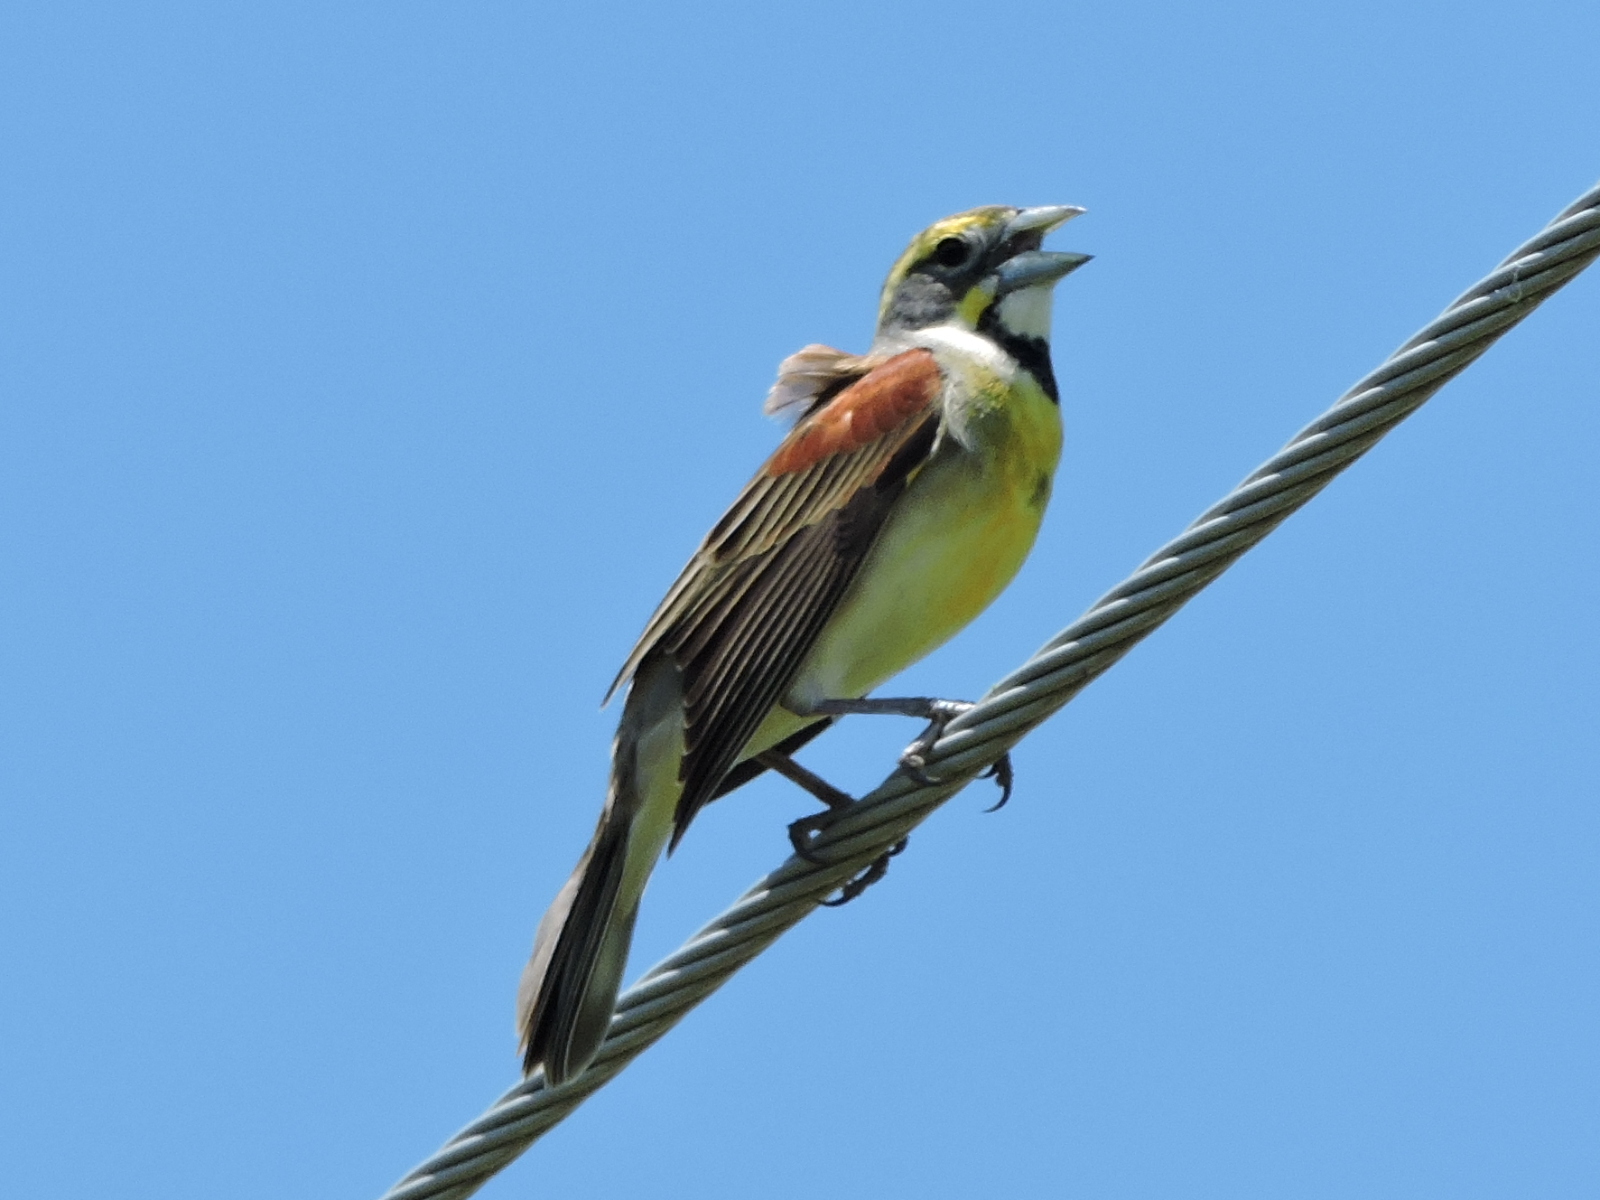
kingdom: Animalia
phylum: Chordata
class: Aves
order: Passeriformes
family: Cardinalidae
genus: Spiza
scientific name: Spiza americana
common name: Dickcissel
